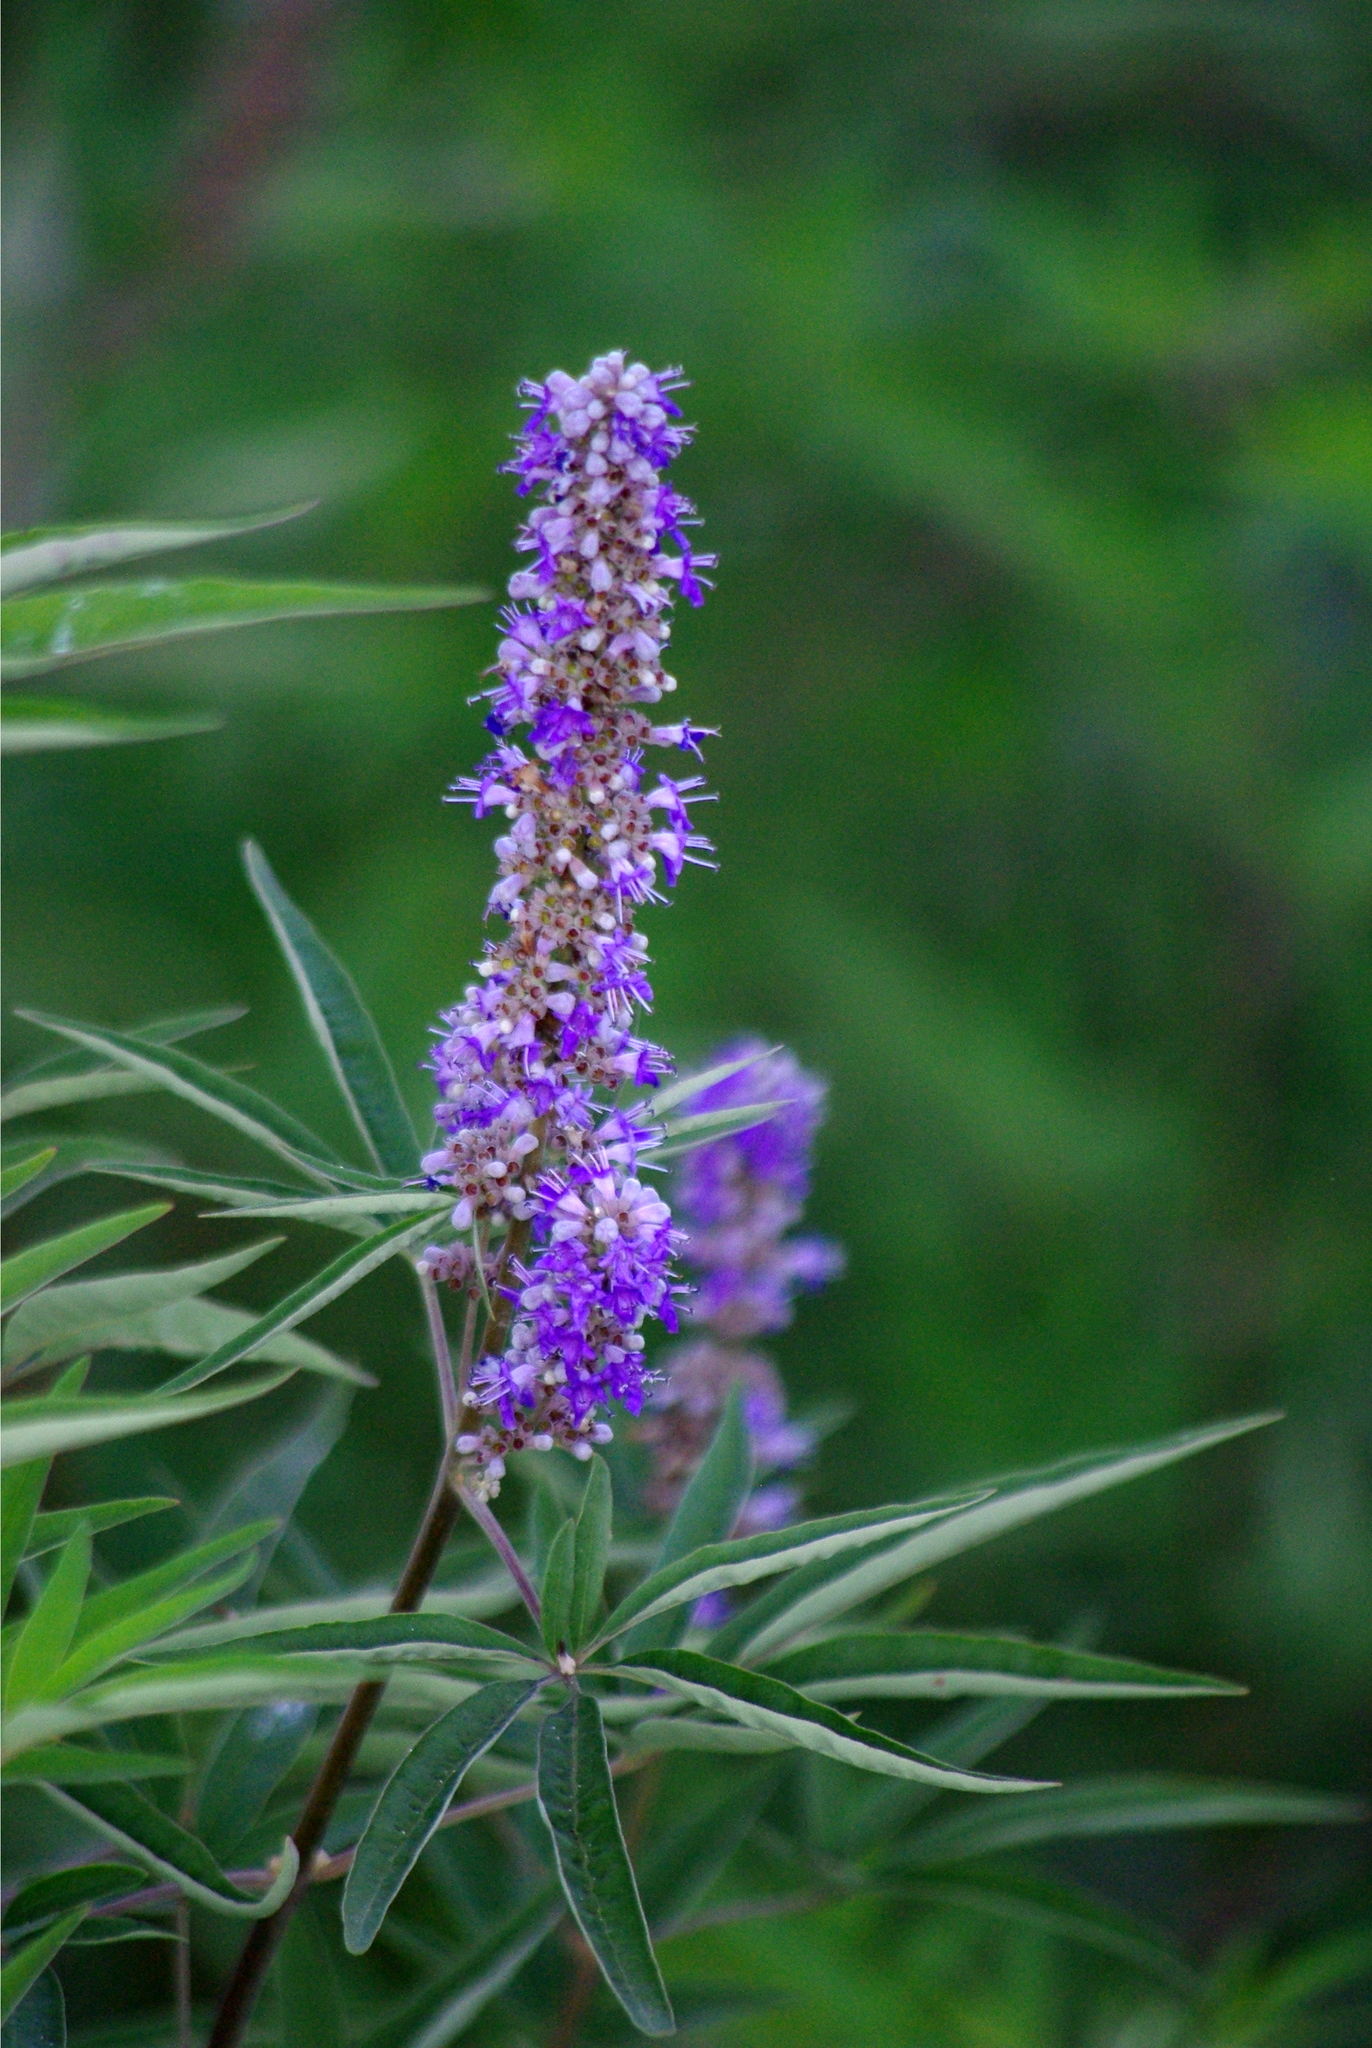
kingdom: Plantae
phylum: Tracheophyta
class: Magnoliopsida
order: Lamiales
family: Lamiaceae
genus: Vitex
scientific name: Vitex agnus-castus
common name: Chasteberry
